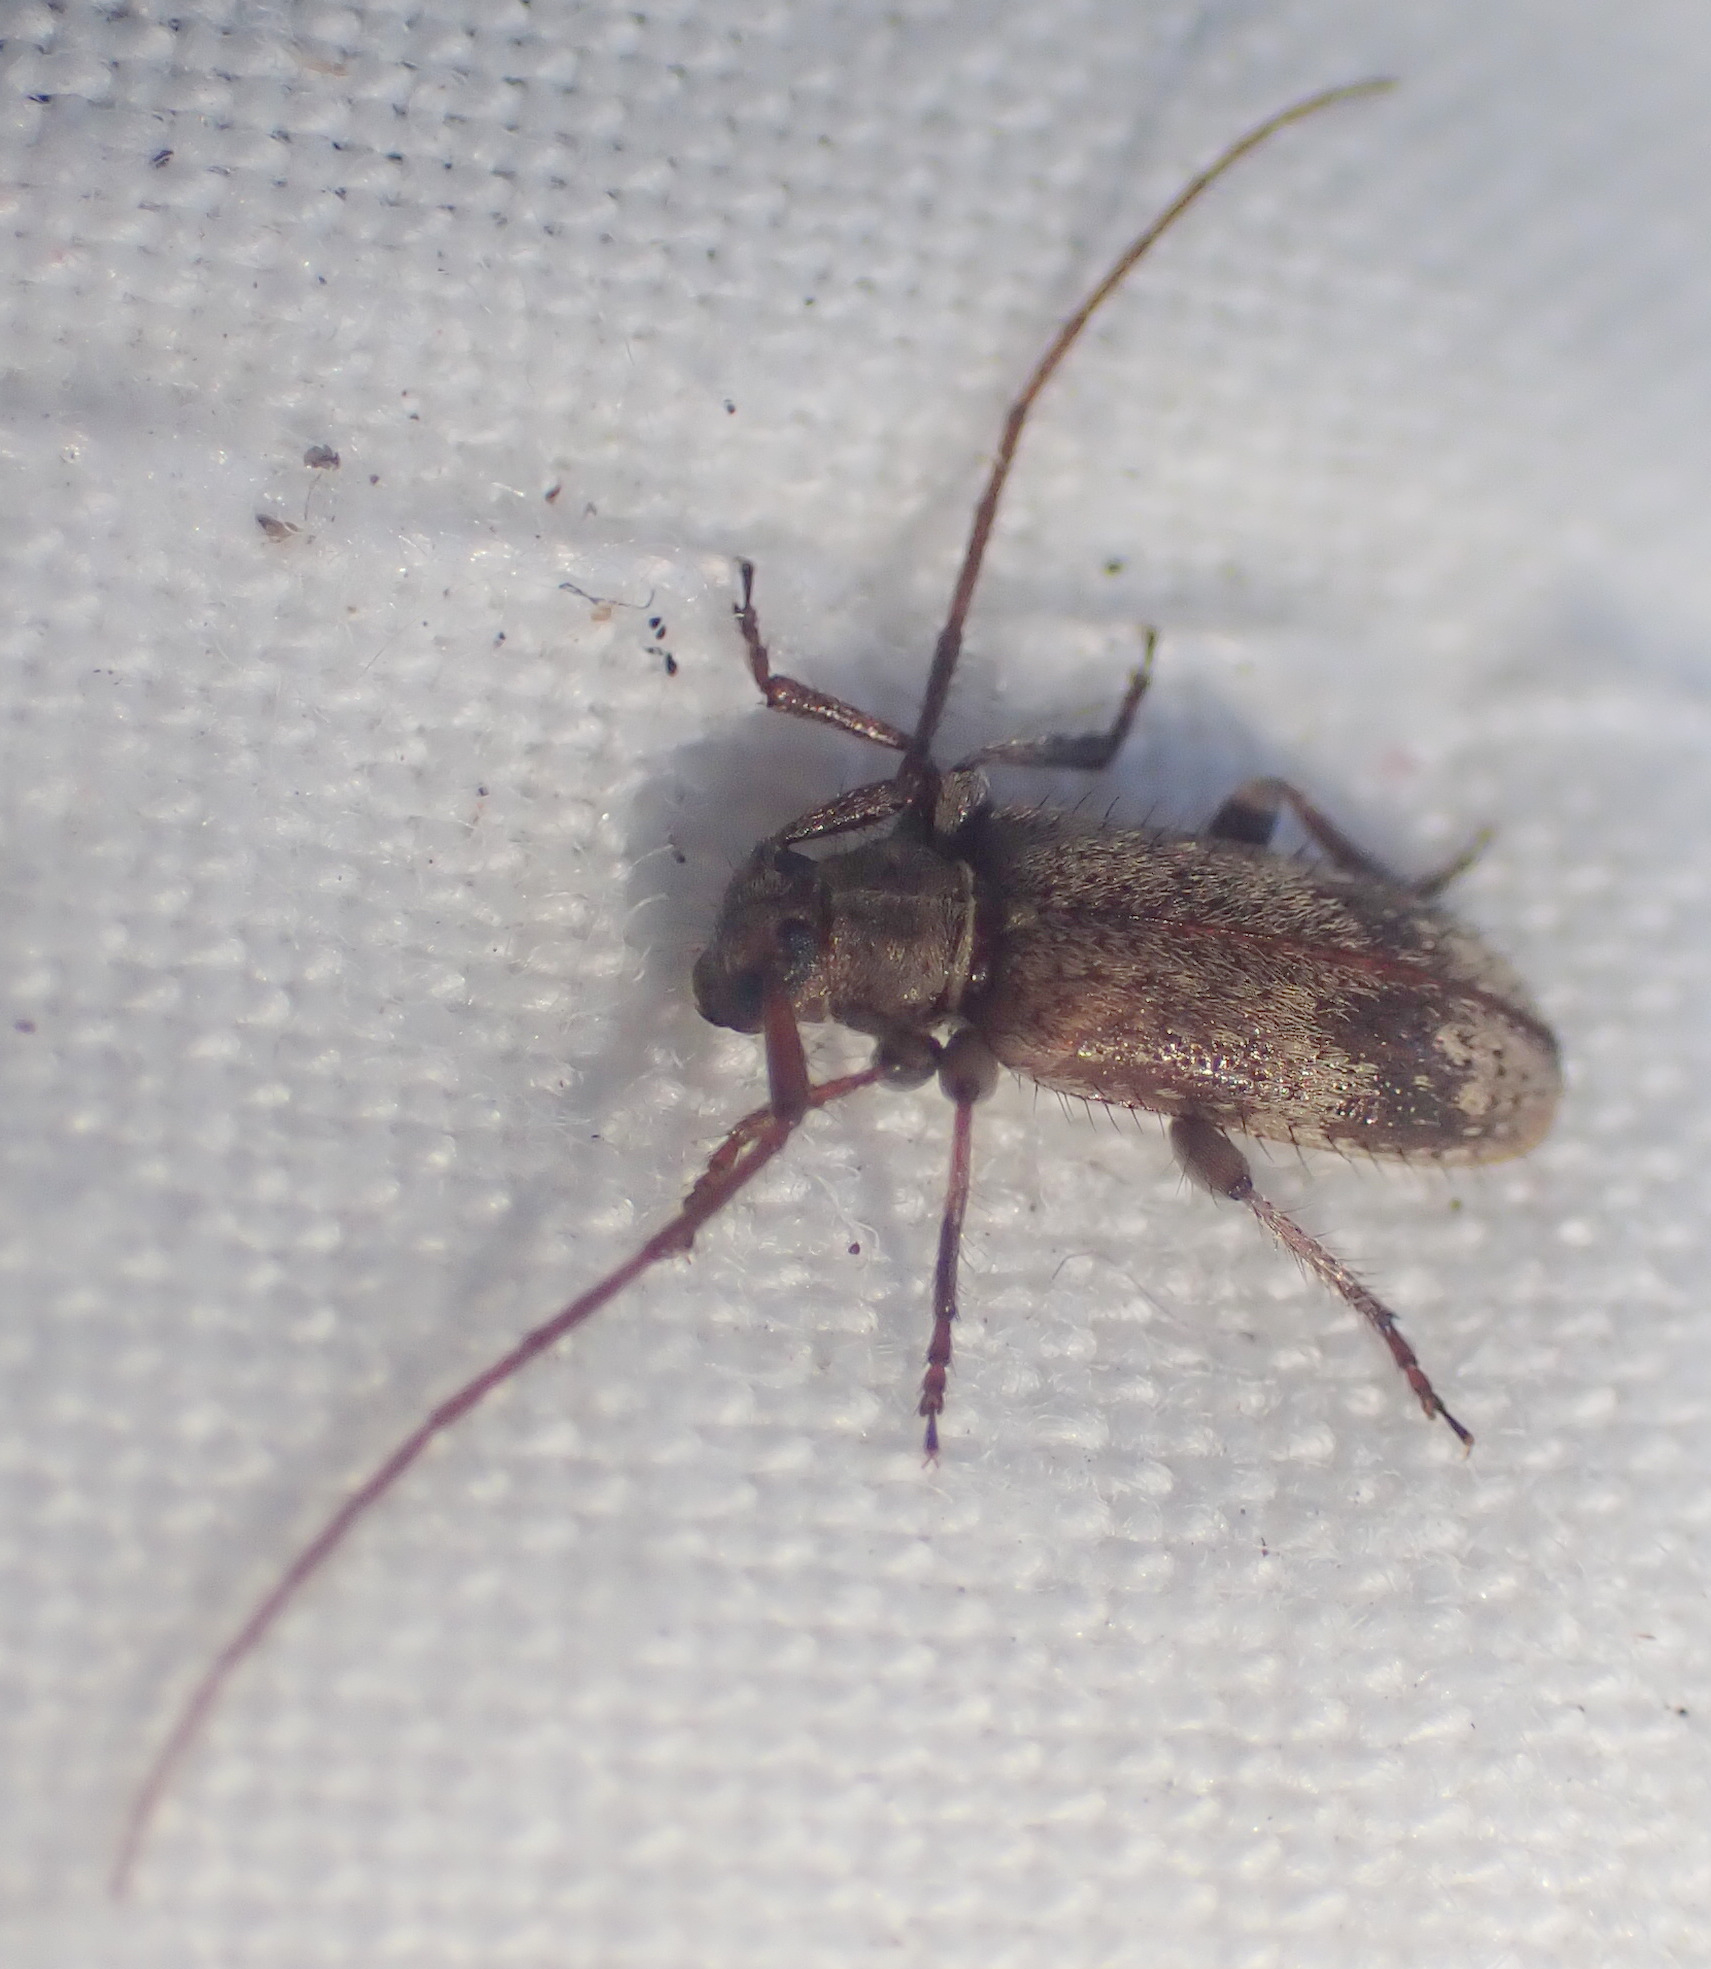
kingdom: Animalia
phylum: Arthropoda
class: Insecta
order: Coleoptera
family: Cerambycidae
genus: Exocentrus
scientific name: Exocentrus adspersus
